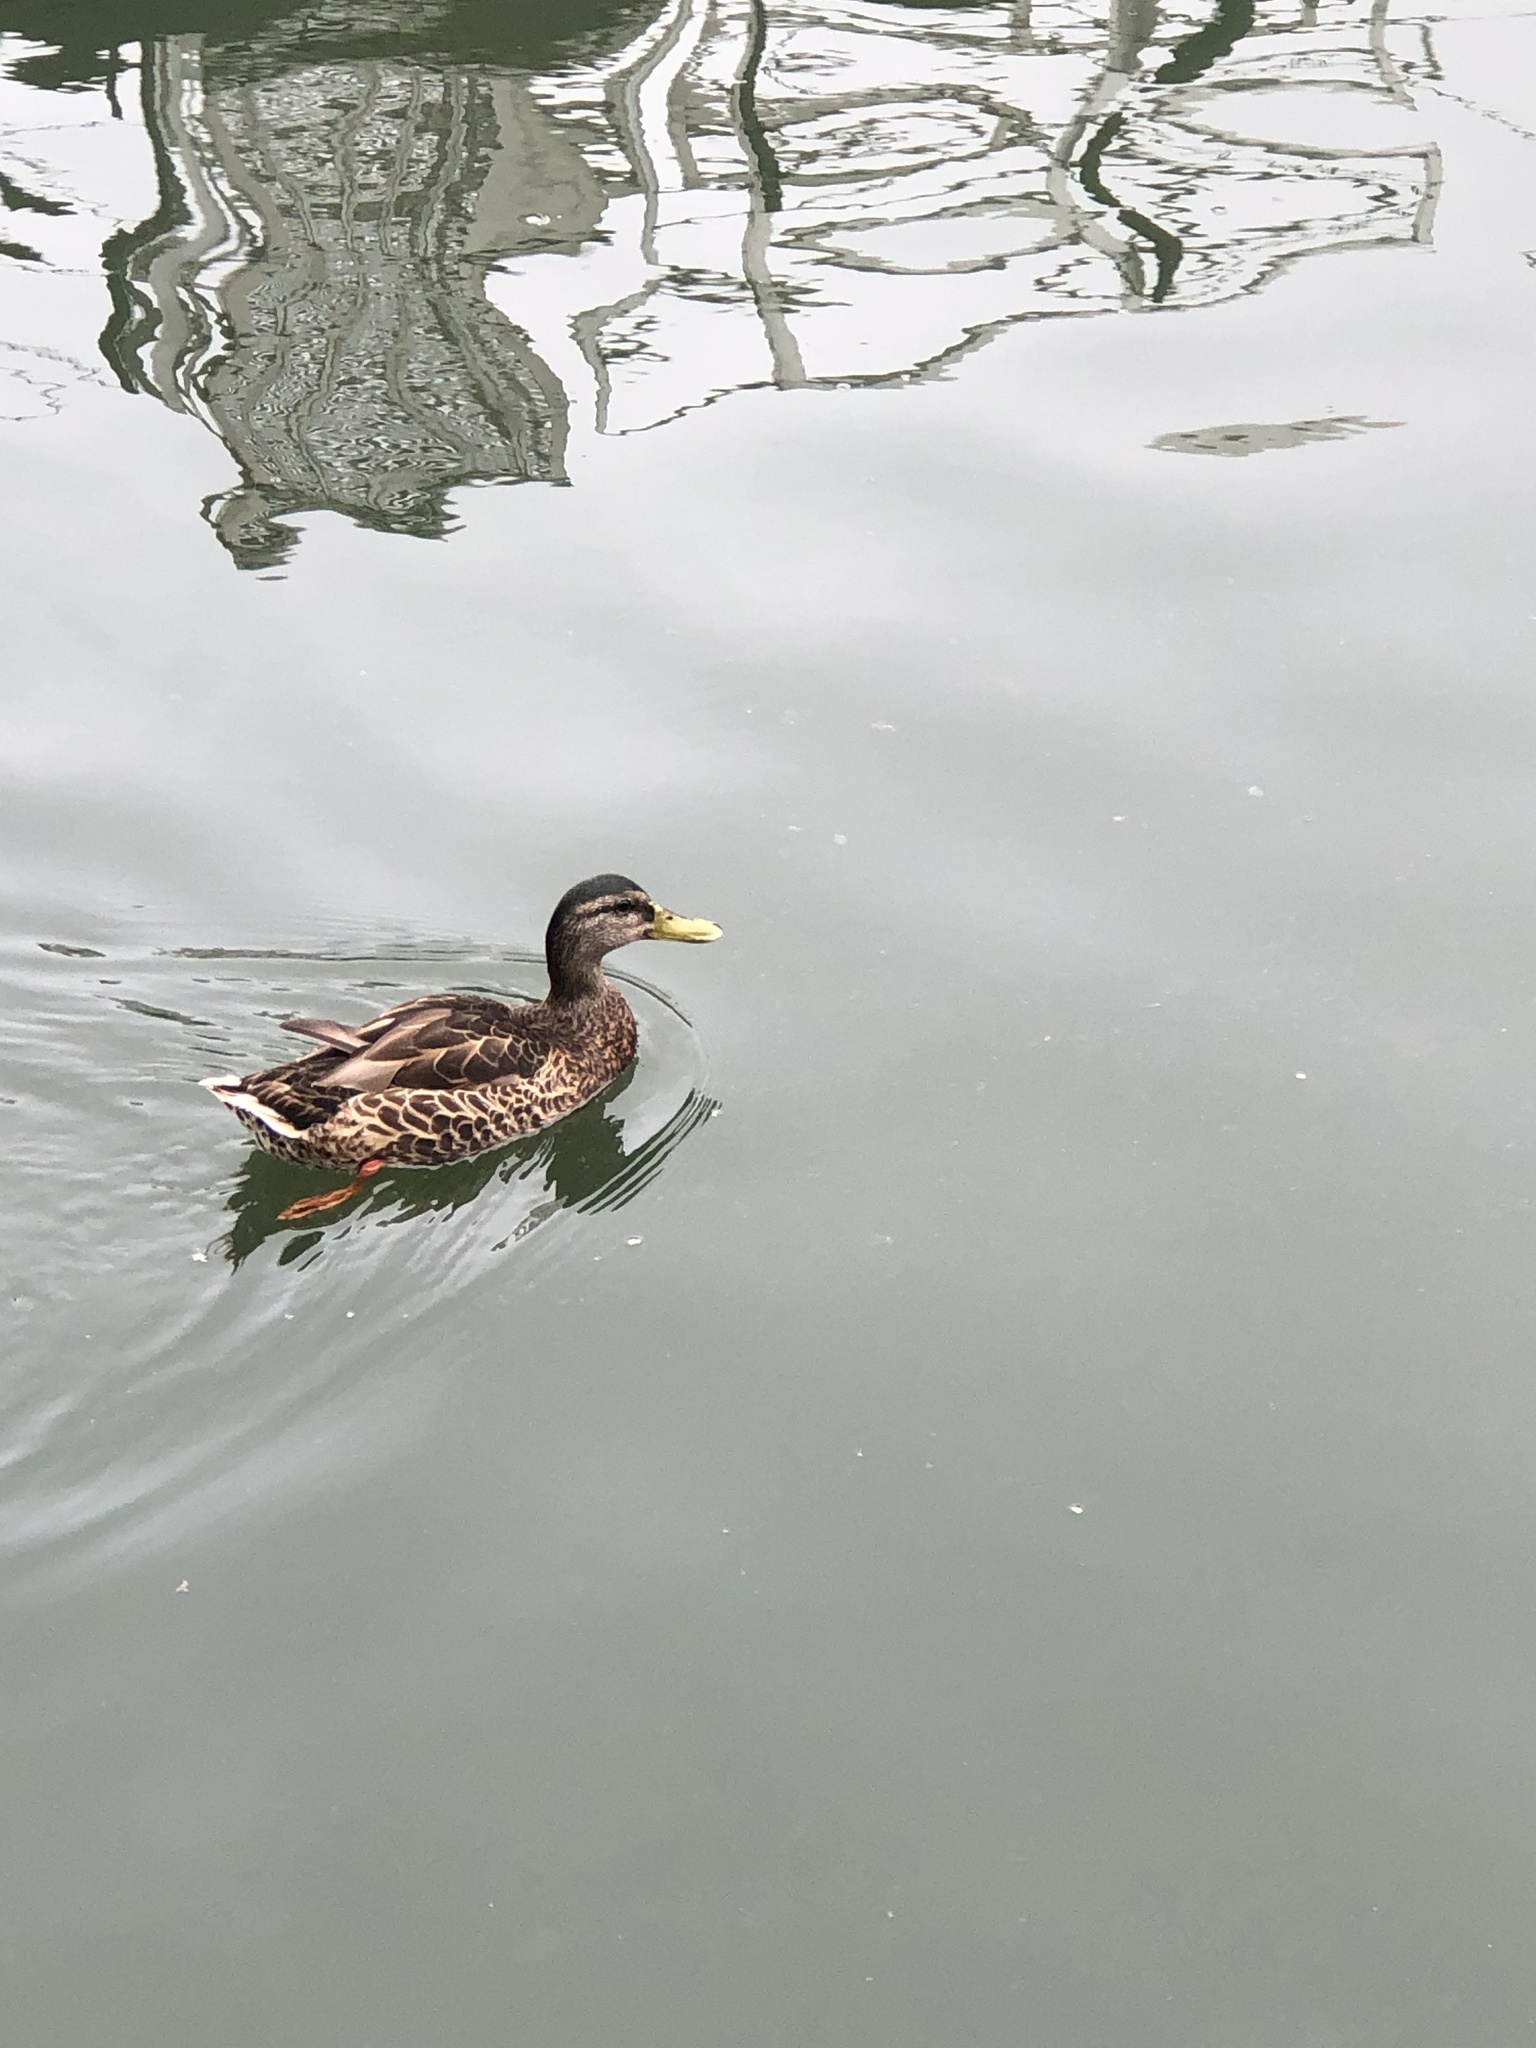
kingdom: Animalia
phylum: Chordata
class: Aves
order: Anseriformes
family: Anatidae
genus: Anas
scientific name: Anas platyrhynchos
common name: Mallard
